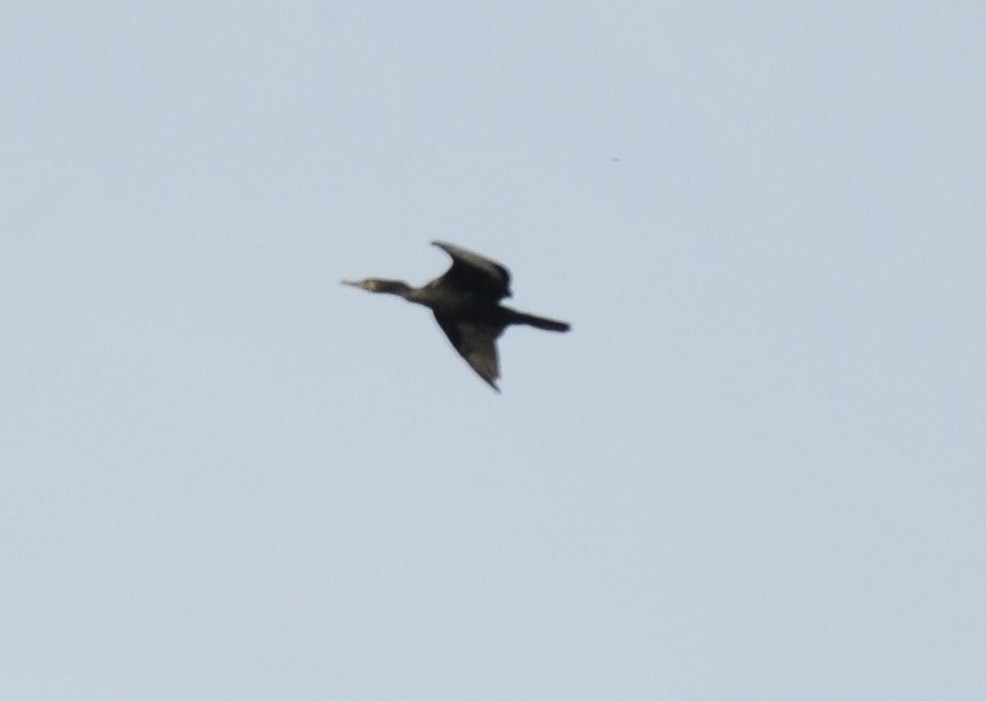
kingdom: Animalia
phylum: Chordata
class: Aves
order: Suliformes
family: Phalacrocoracidae
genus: Phalacrocorax
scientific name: Phalacrocorax fuscicollis
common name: Indian cormorant
